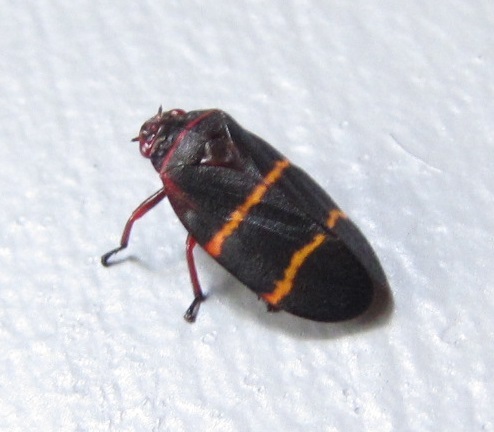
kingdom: Animalia
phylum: Arthropoda
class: Insecta
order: Hemiptera
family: Cercopidae
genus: Prosapia
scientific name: Prosapia bicincta
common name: Twolined spittlebug
